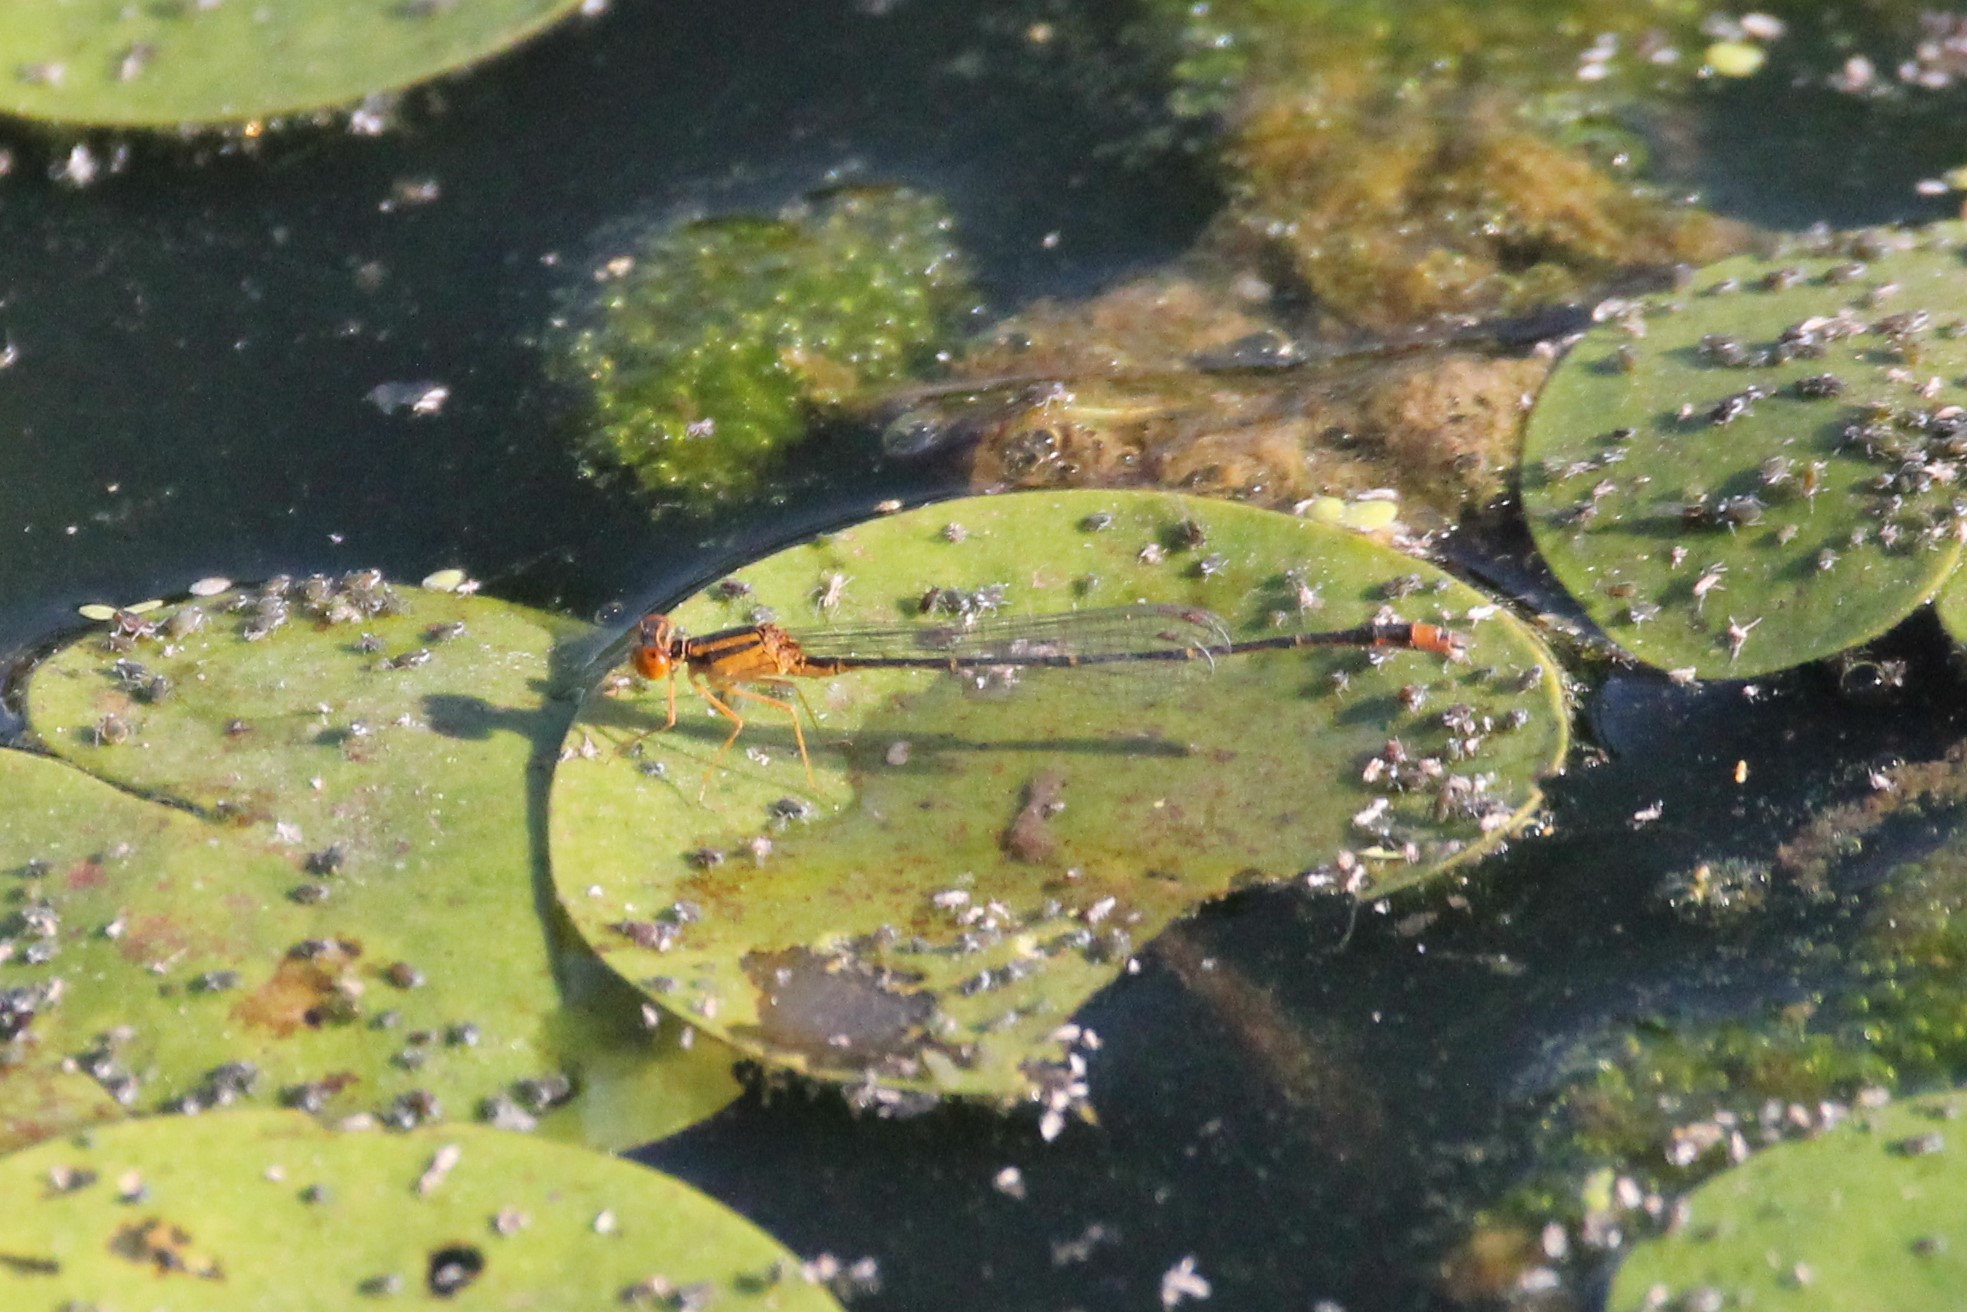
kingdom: Animalia
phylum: Arthropoda
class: Insecta
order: Odonata
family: Coenagrionidae
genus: Enallagma
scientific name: Enallagma signatum
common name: Orange bluet
